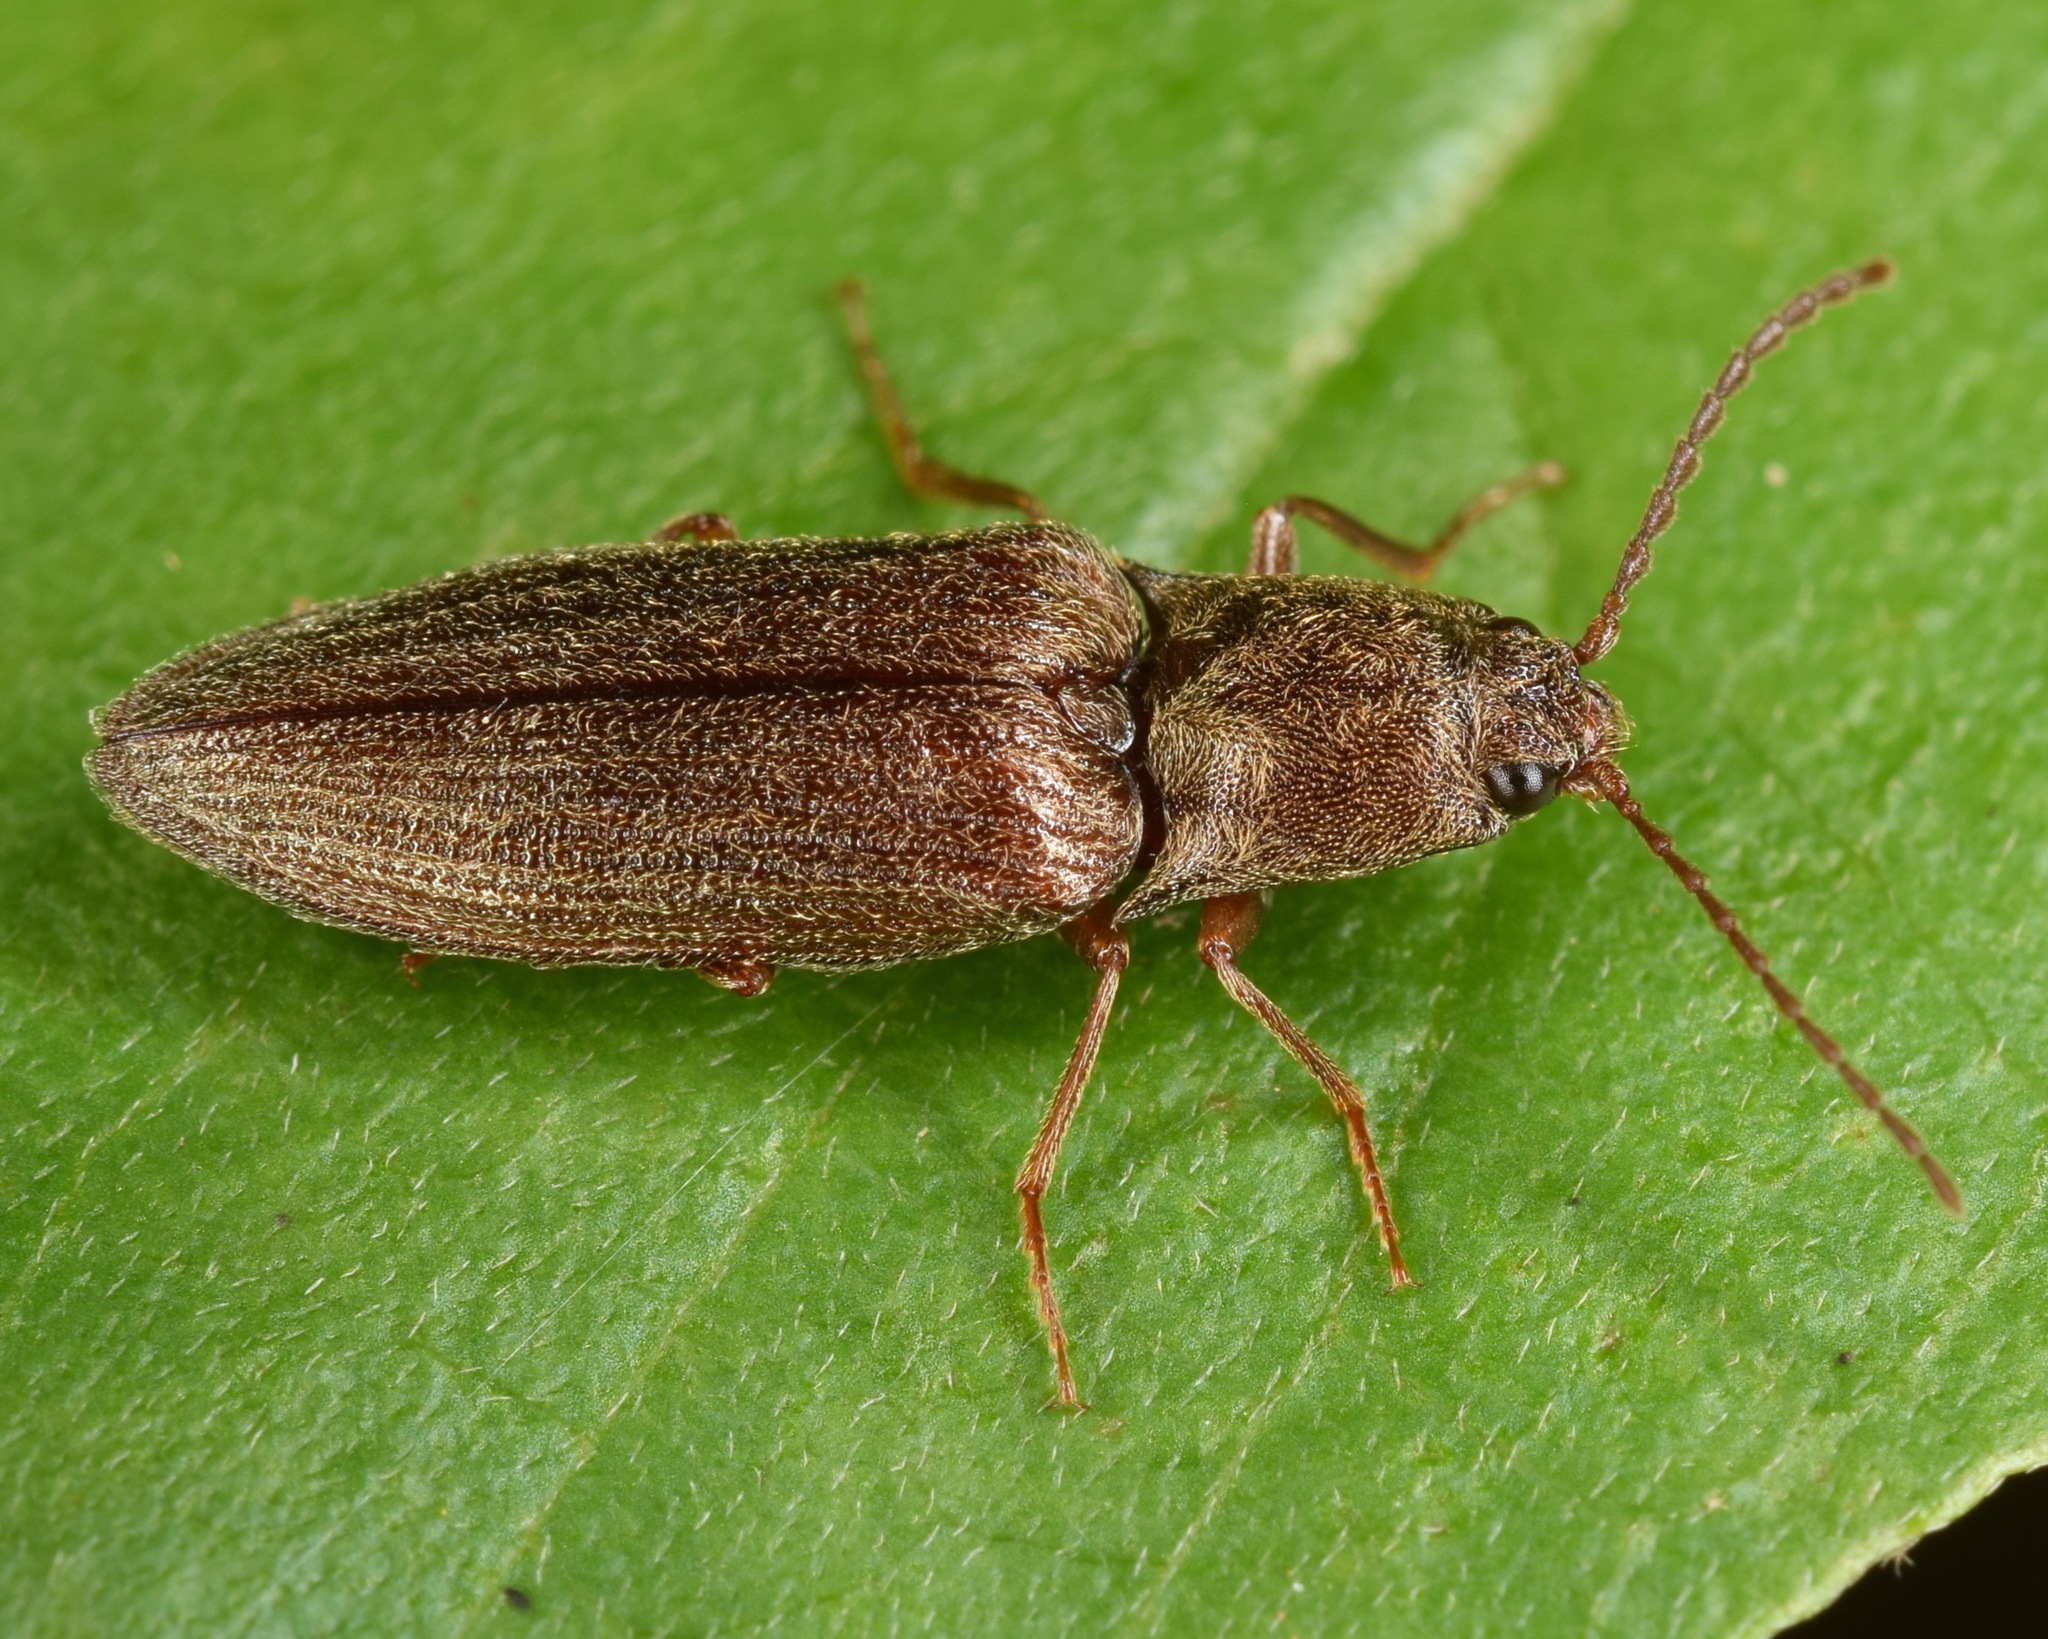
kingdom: Animalia
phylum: Arthropoda
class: Insecta
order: Coleoptera
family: Elateridae
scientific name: Elateridae
